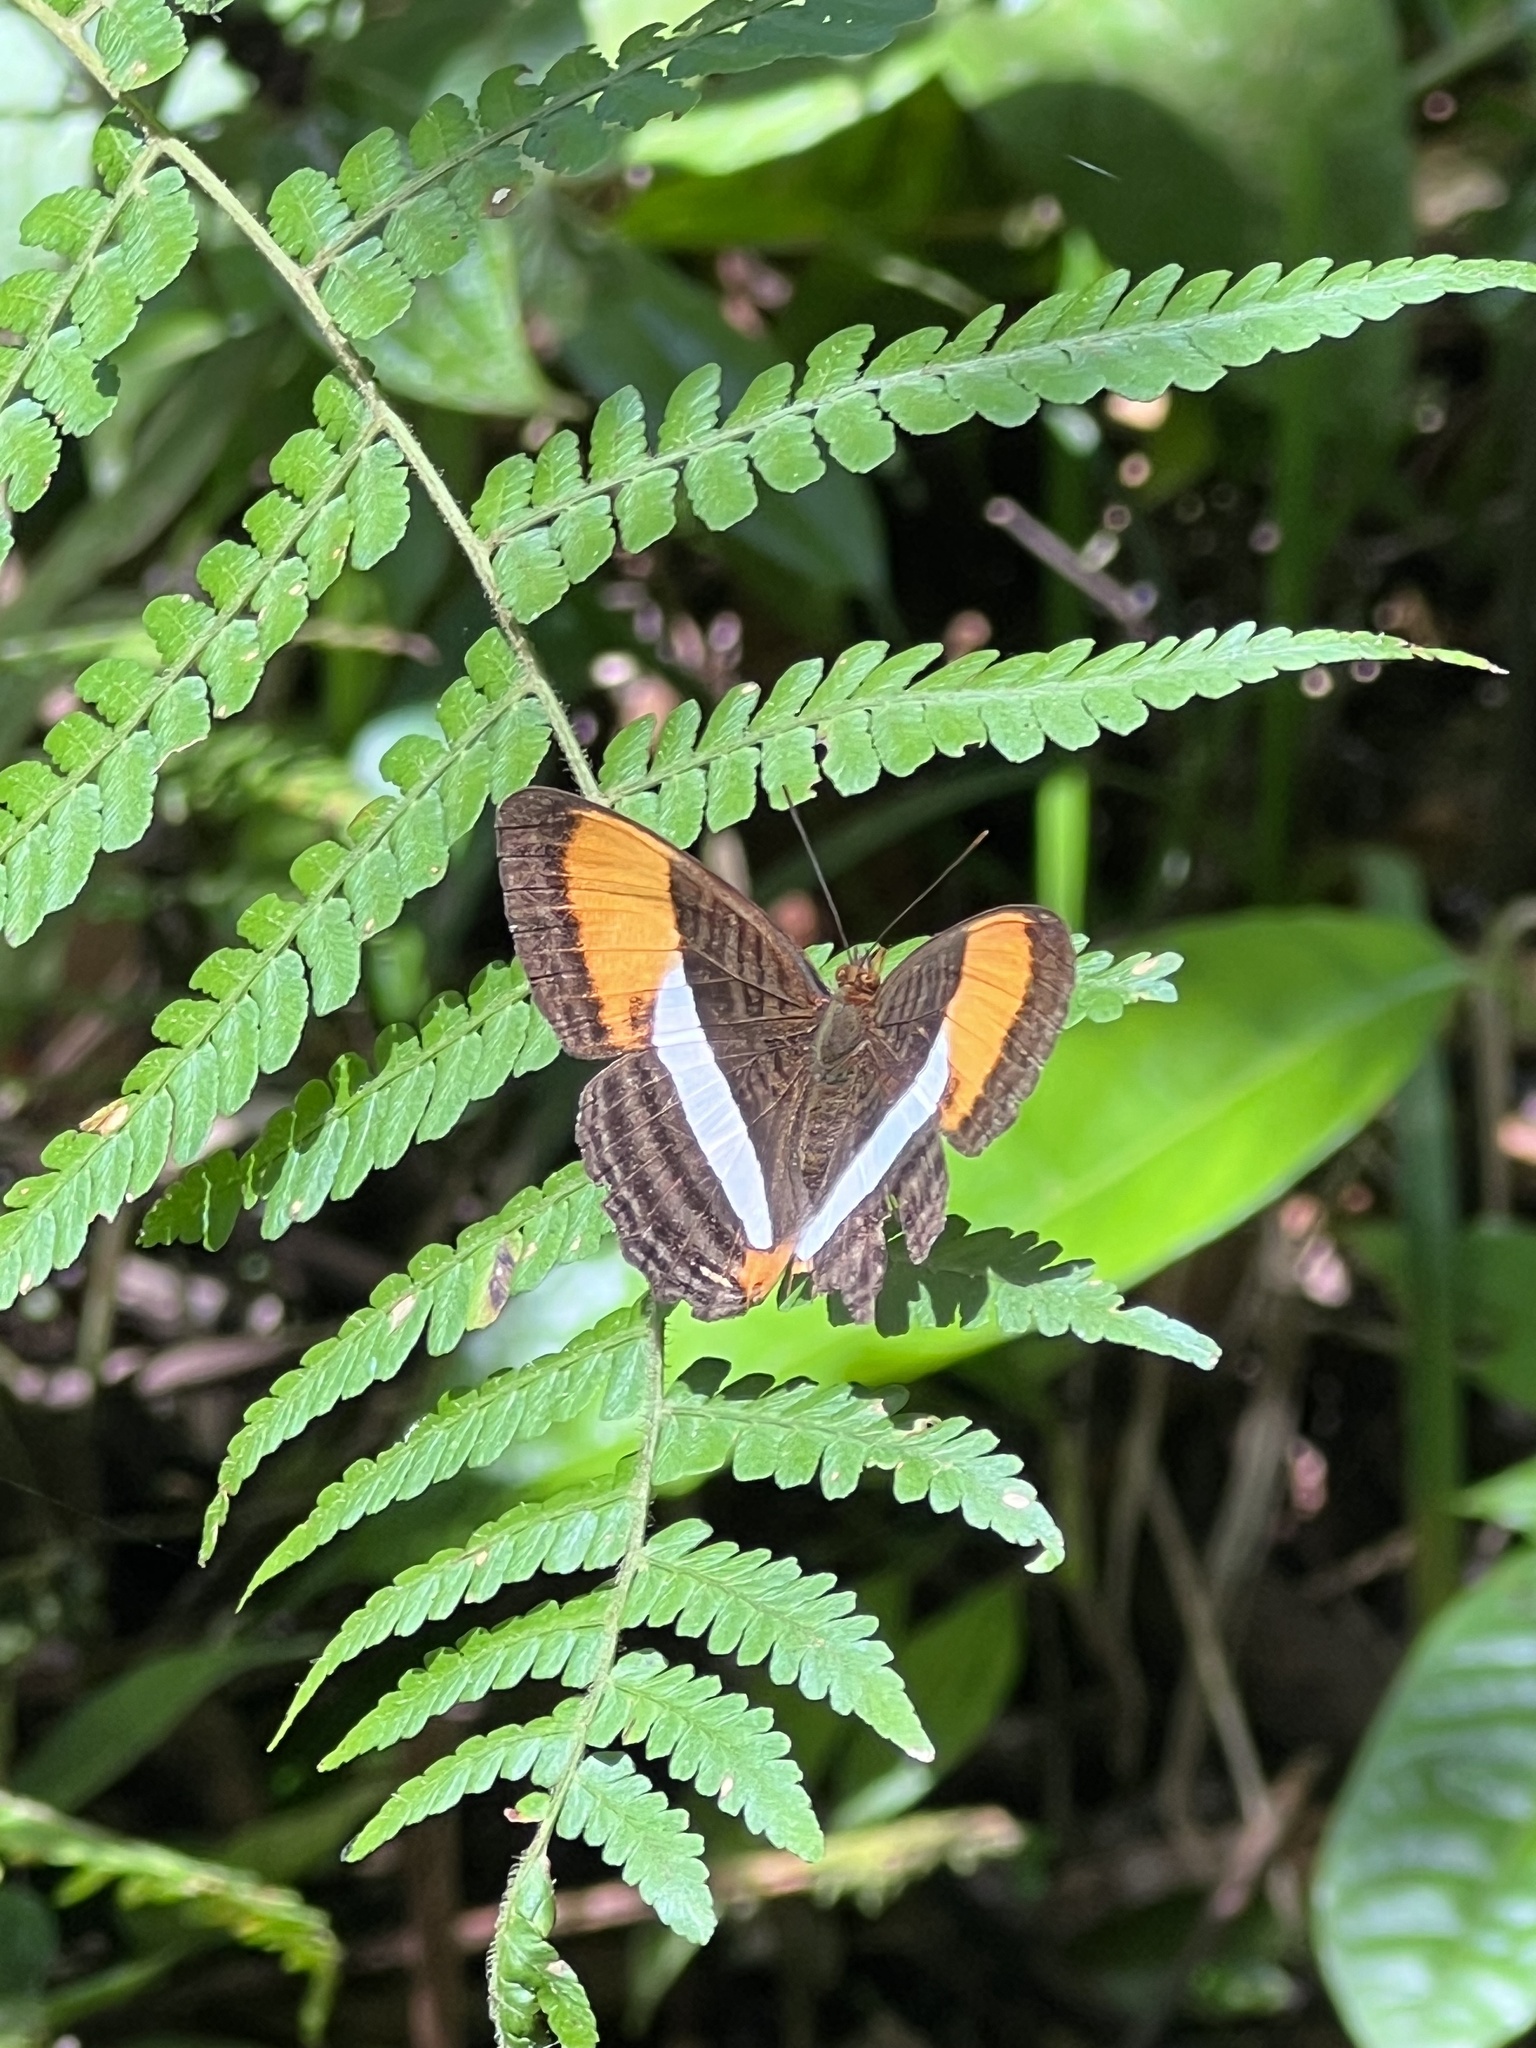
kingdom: Animalia
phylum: Arthropoda
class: Insecta
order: Lepidoptera
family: Nymphalidae
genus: Limenitis
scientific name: Limenitis cytherea
